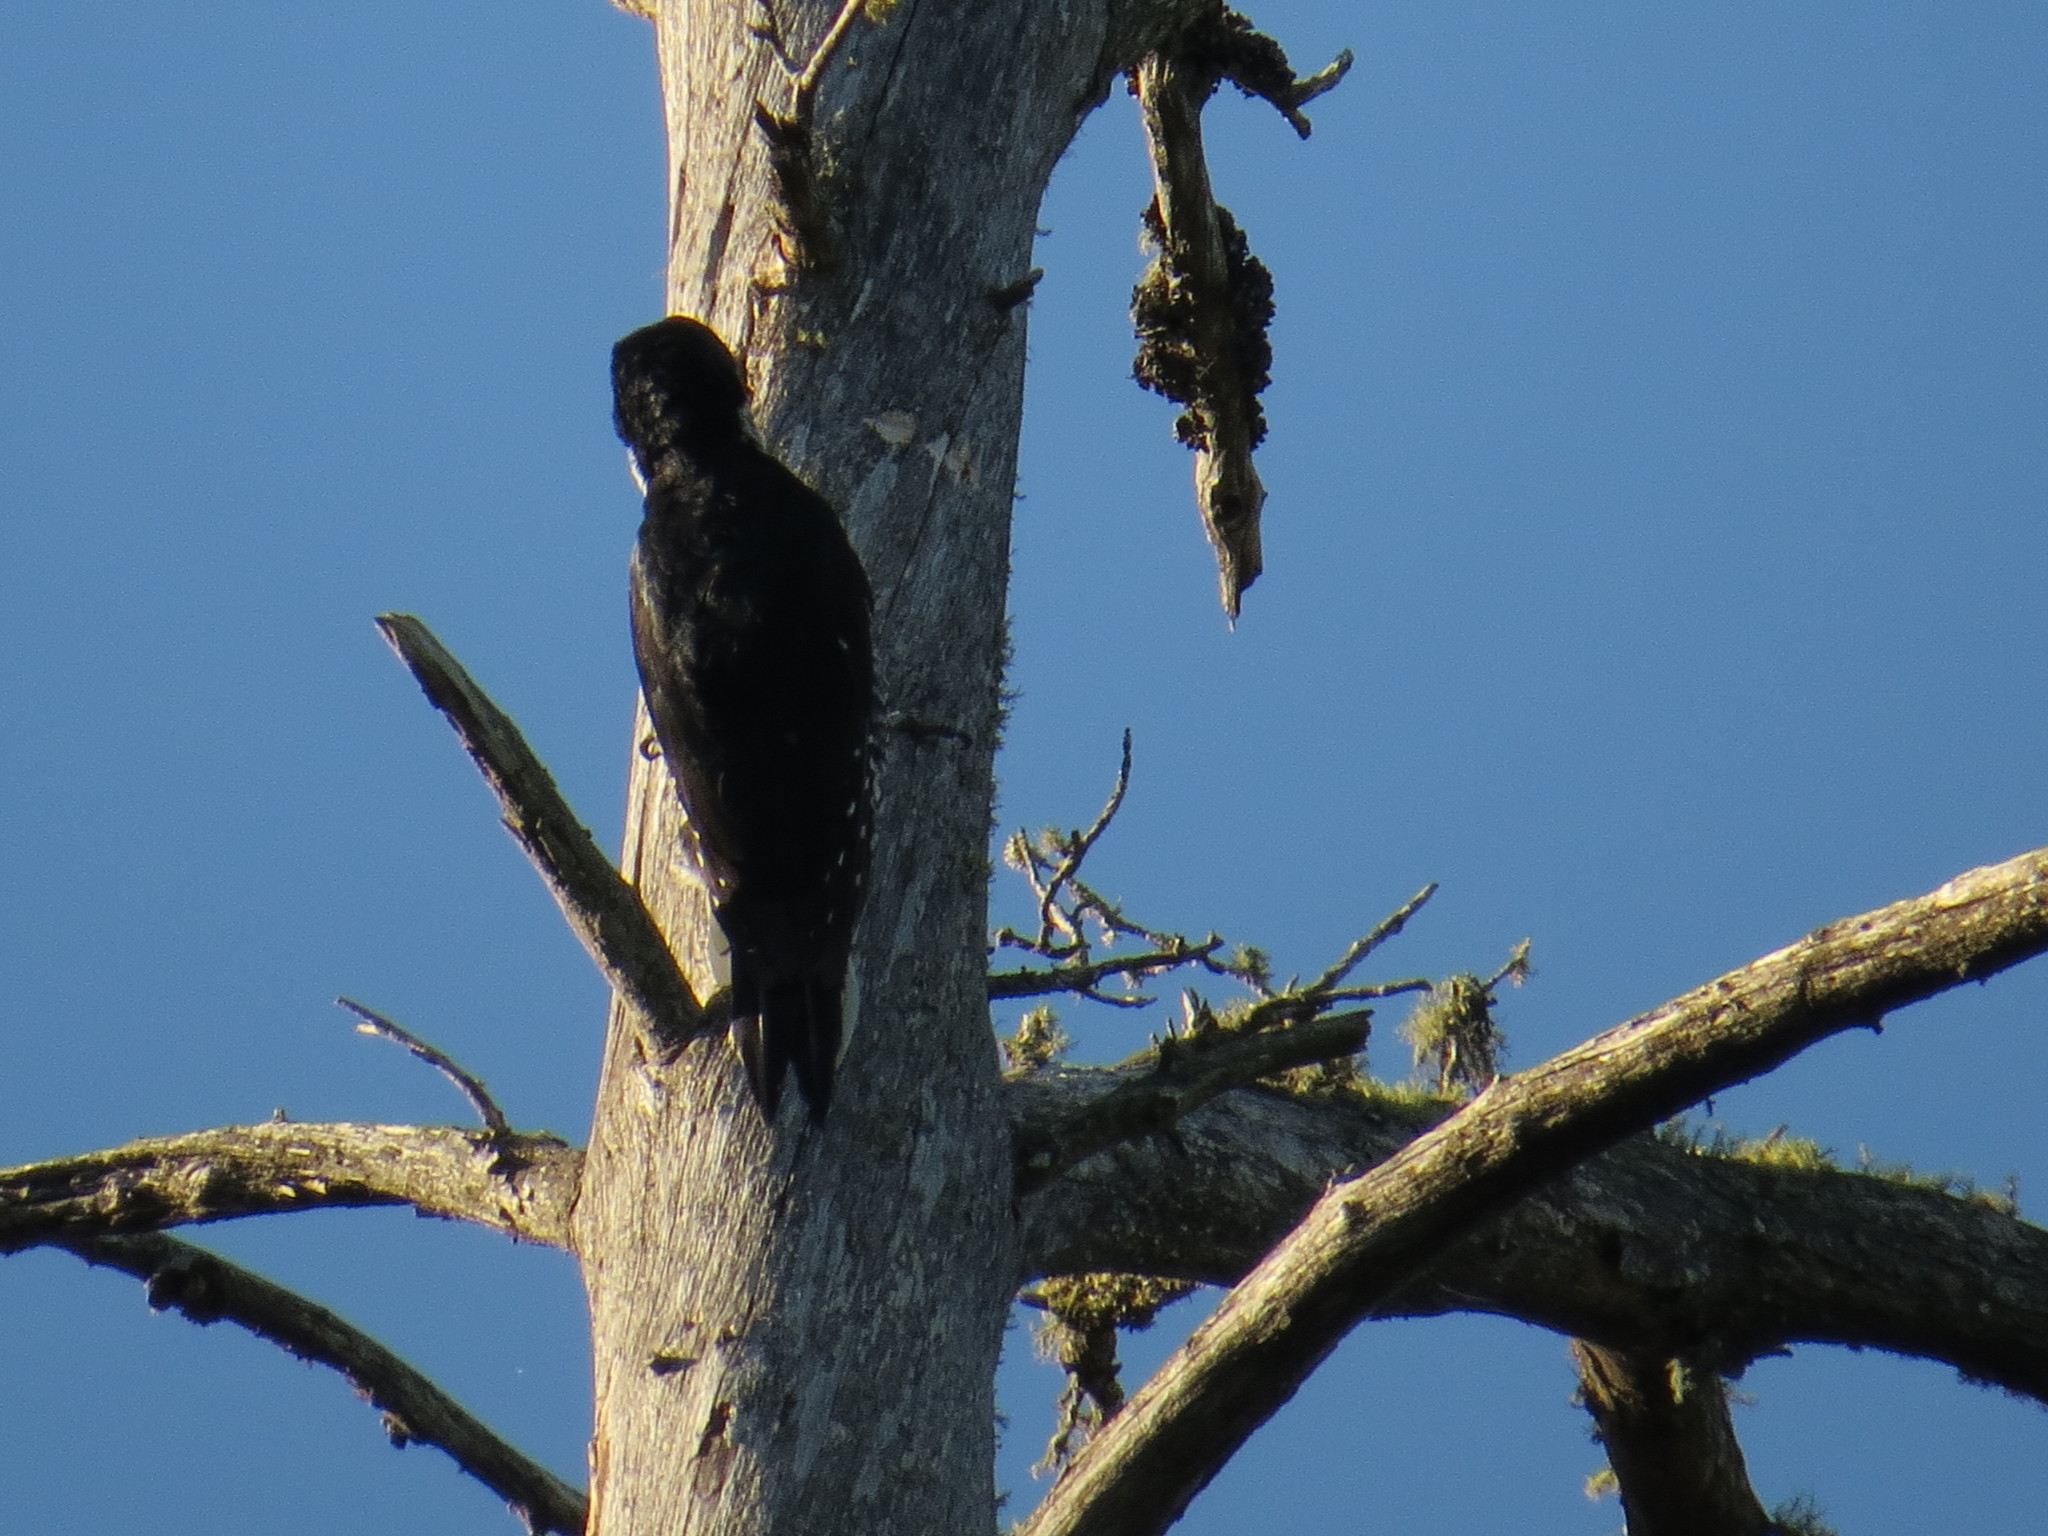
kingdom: Animalia
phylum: Chordata
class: Aves
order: Piciformes
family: Picidae
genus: Picoides
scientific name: Picoides arcticus
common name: Black-backed woodpecker
